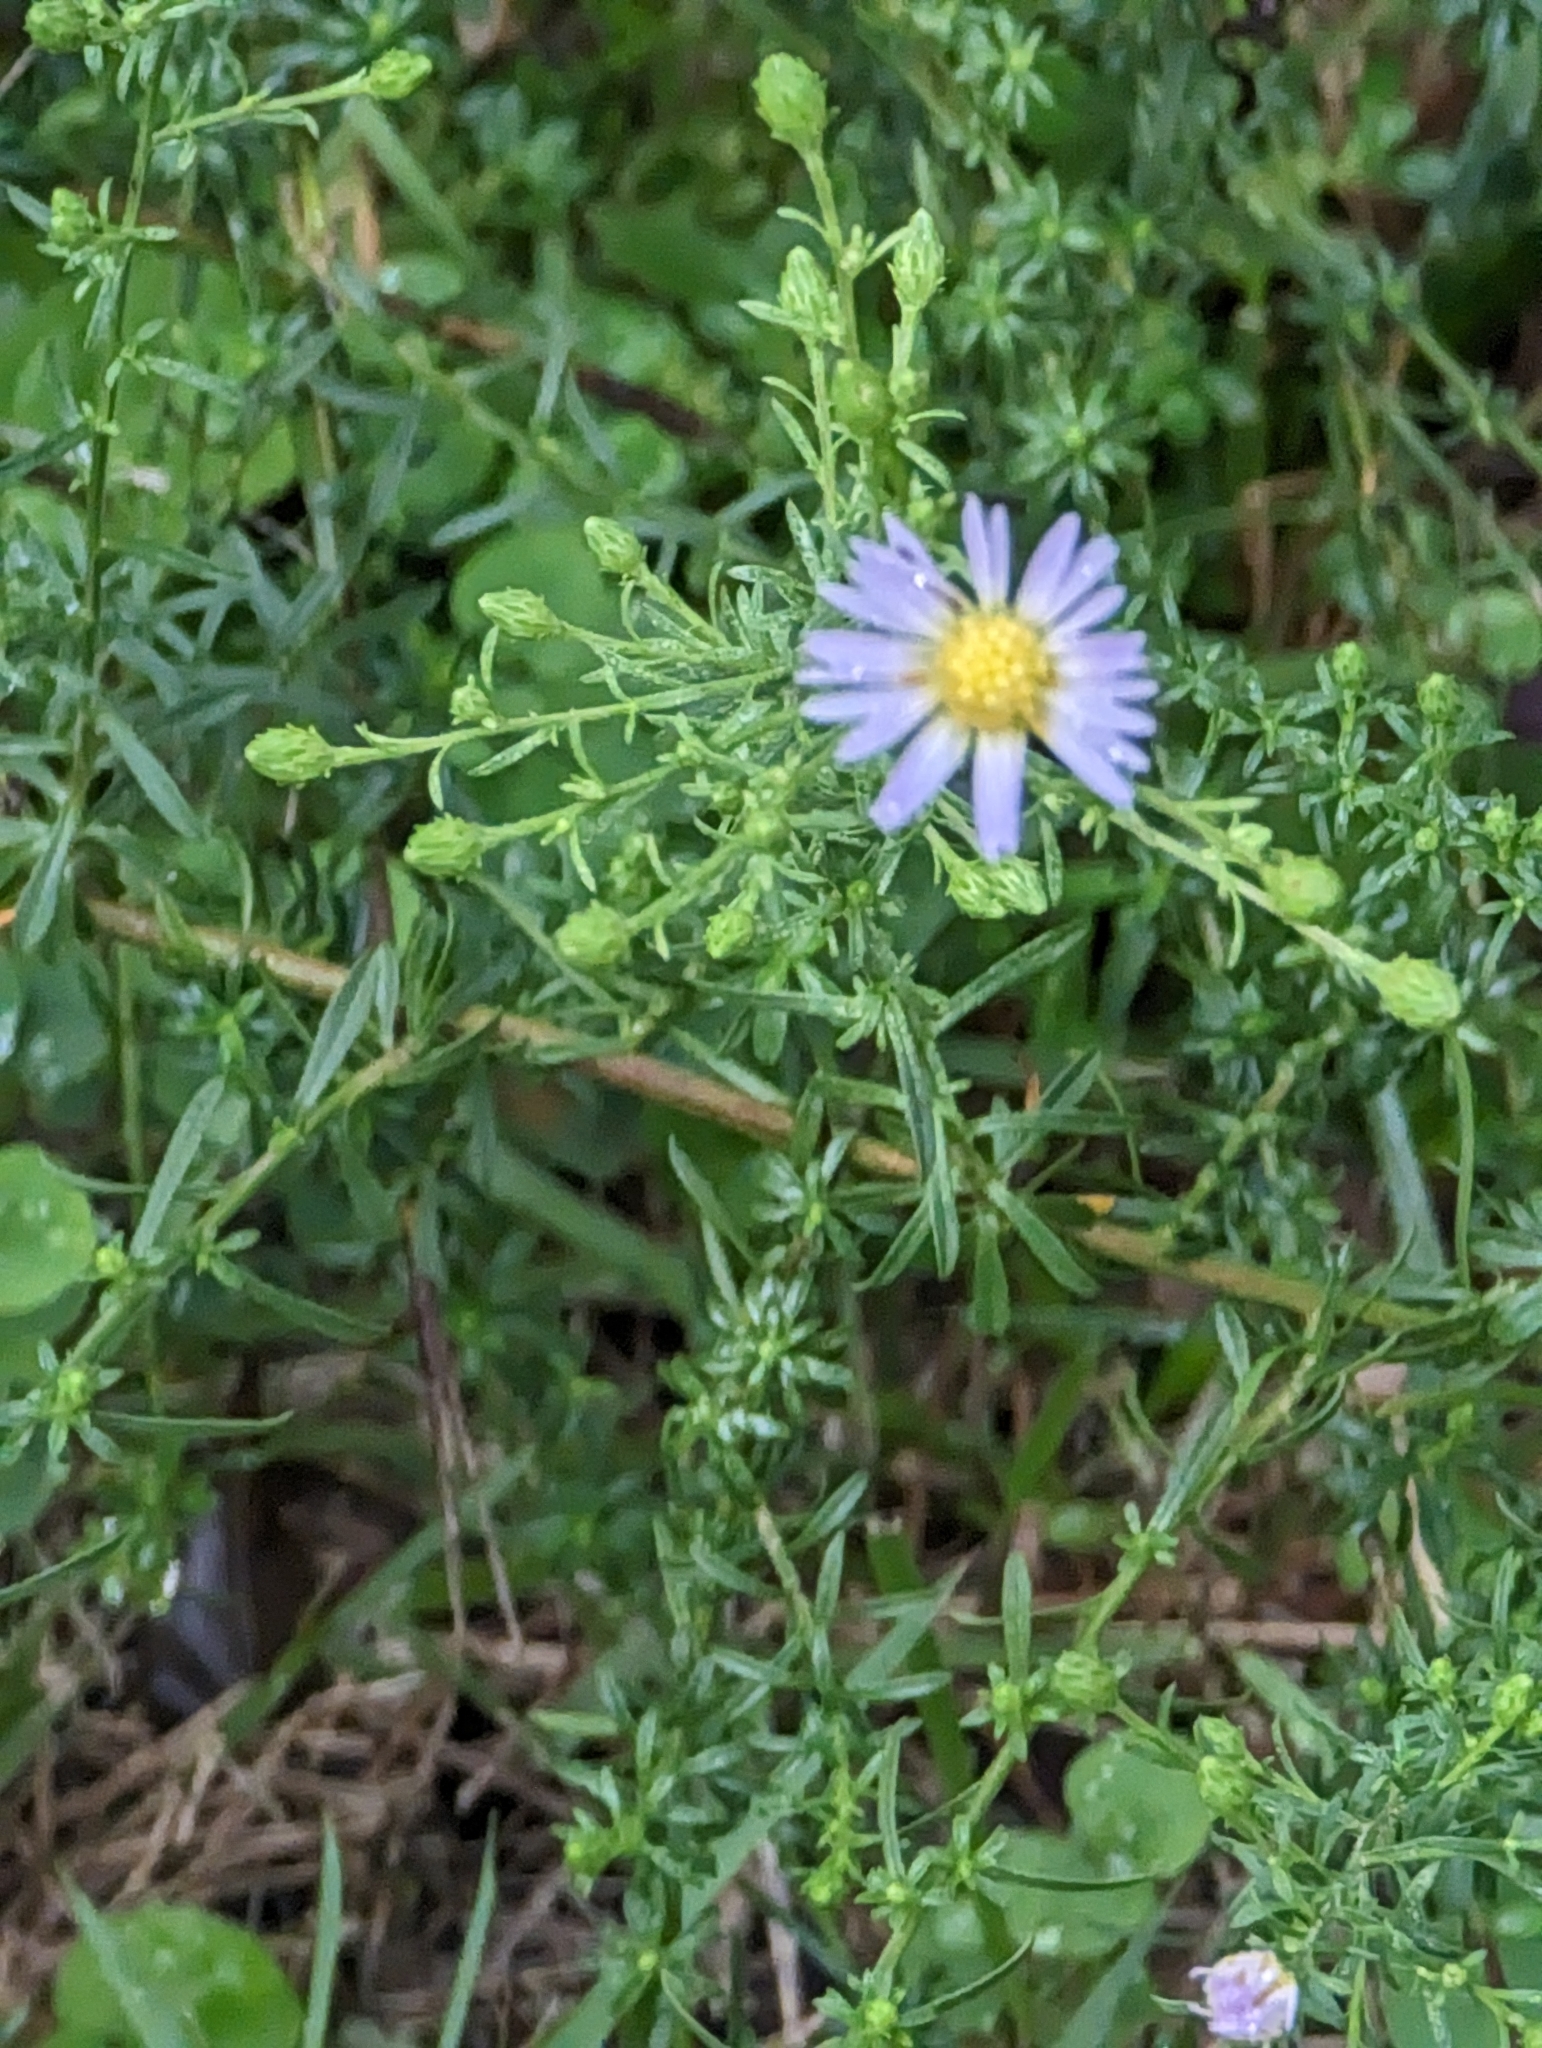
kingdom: Plantae
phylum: Tracheophyta
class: Magnoliopsida
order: Asterales
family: Asteraceae
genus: Symphyotrichum
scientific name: Symphyotrichum dumosum
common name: Bushy aster
